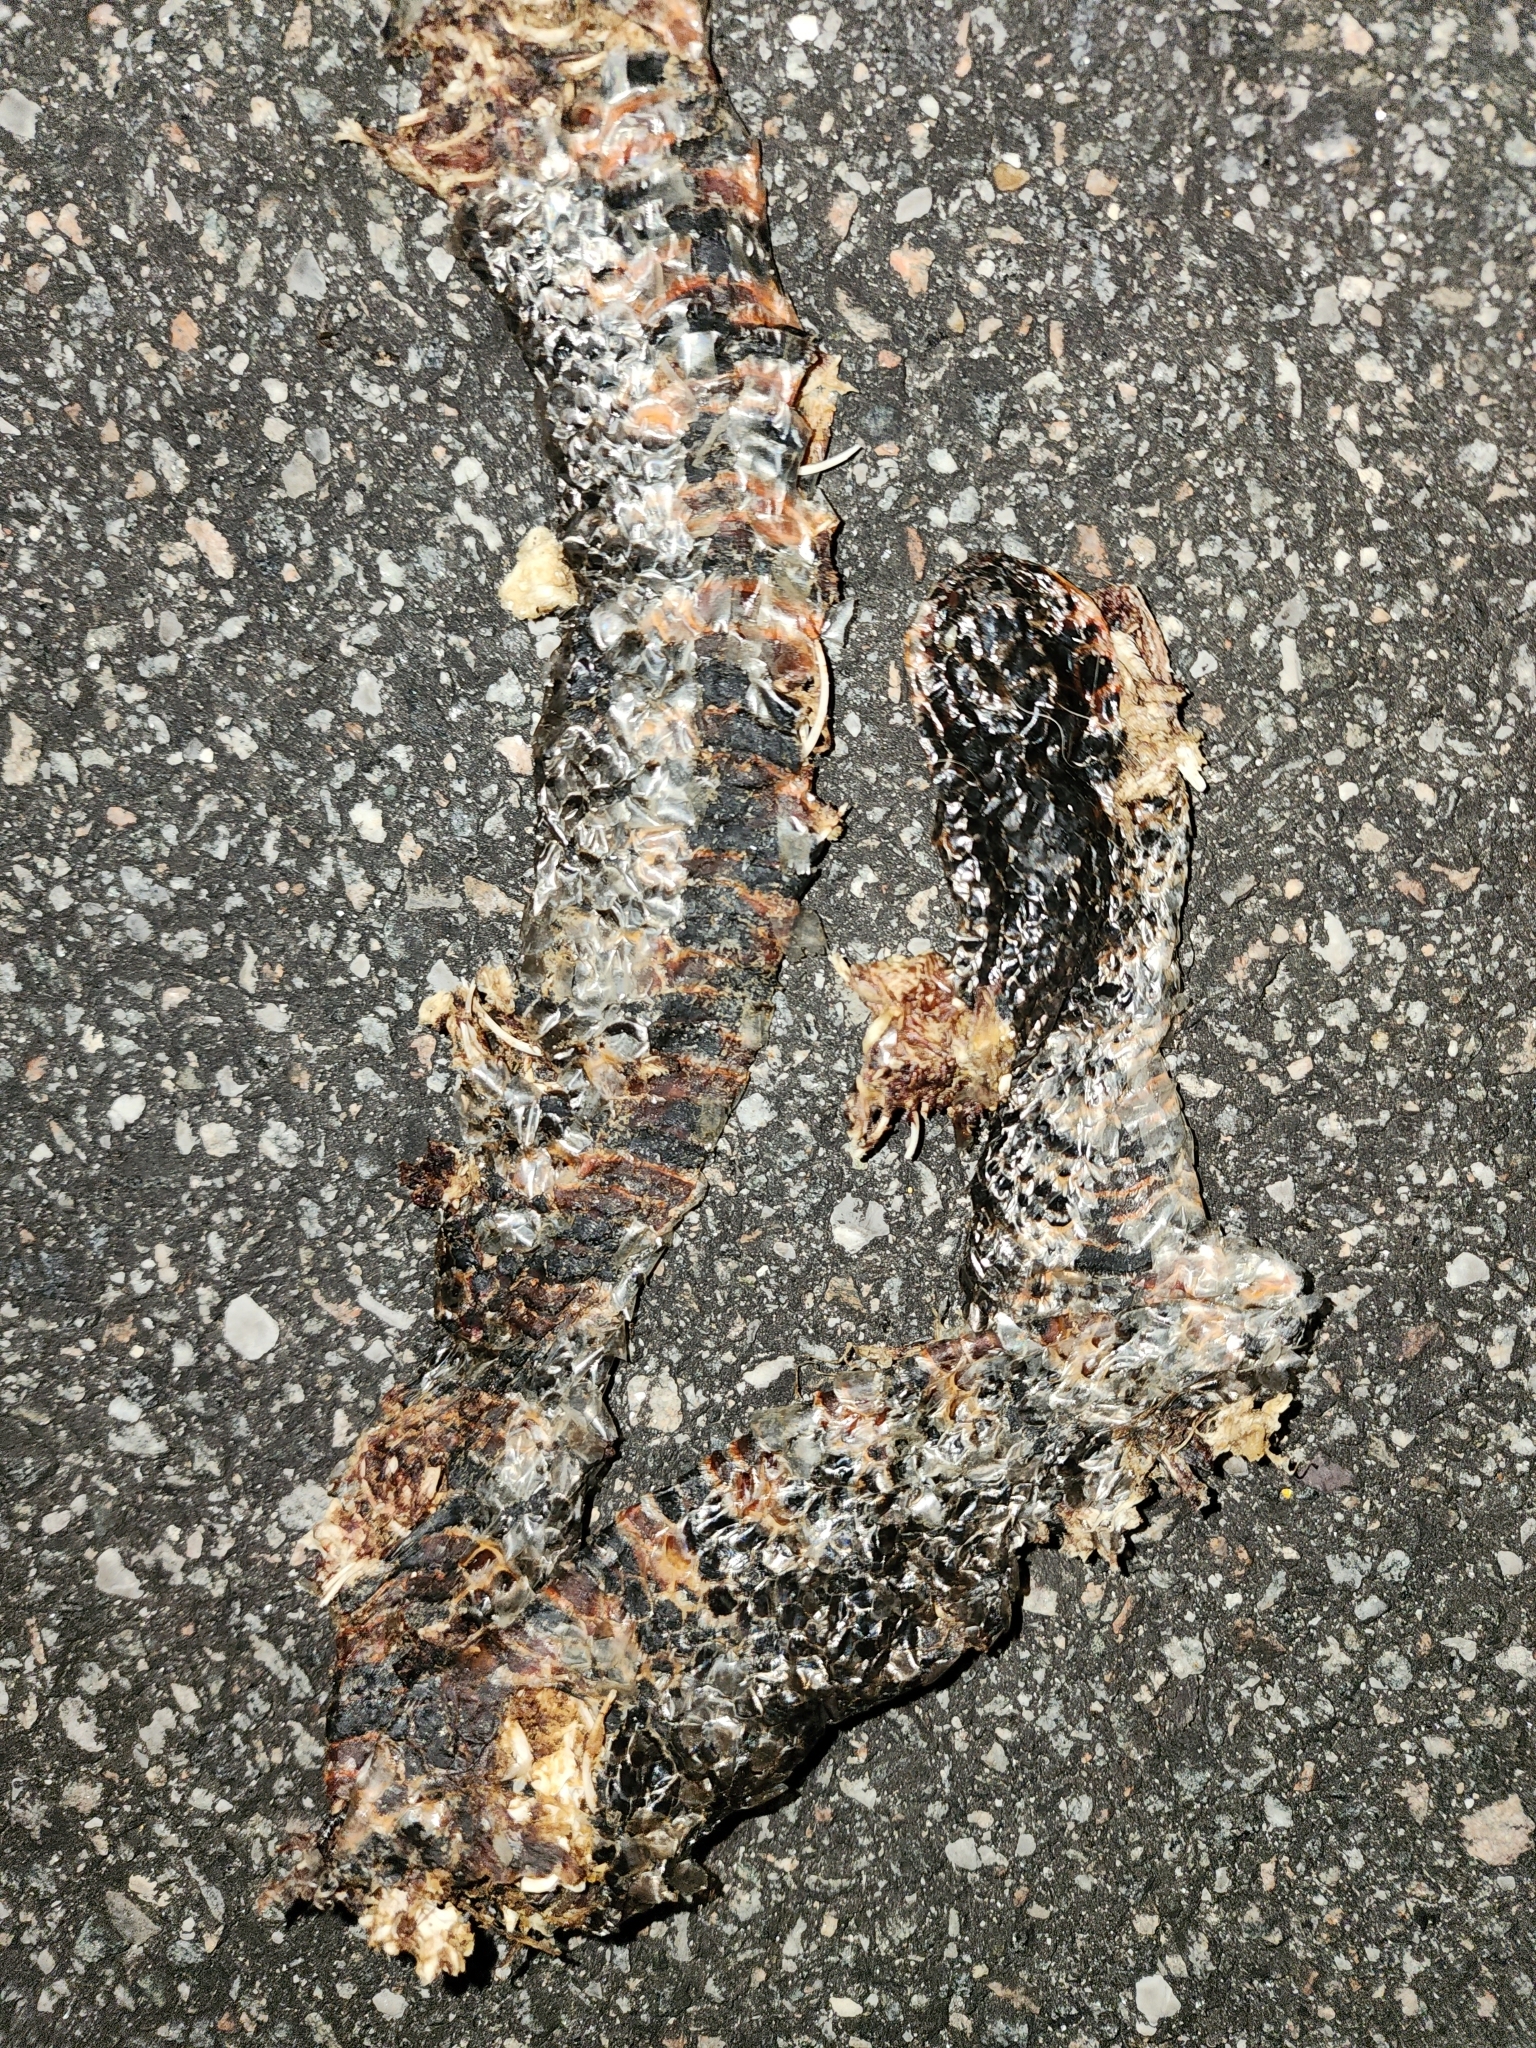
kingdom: Animalia
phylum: Chordata
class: Squamata
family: Colubridae
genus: Farancia
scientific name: Farancia abacura
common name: Mud snake
